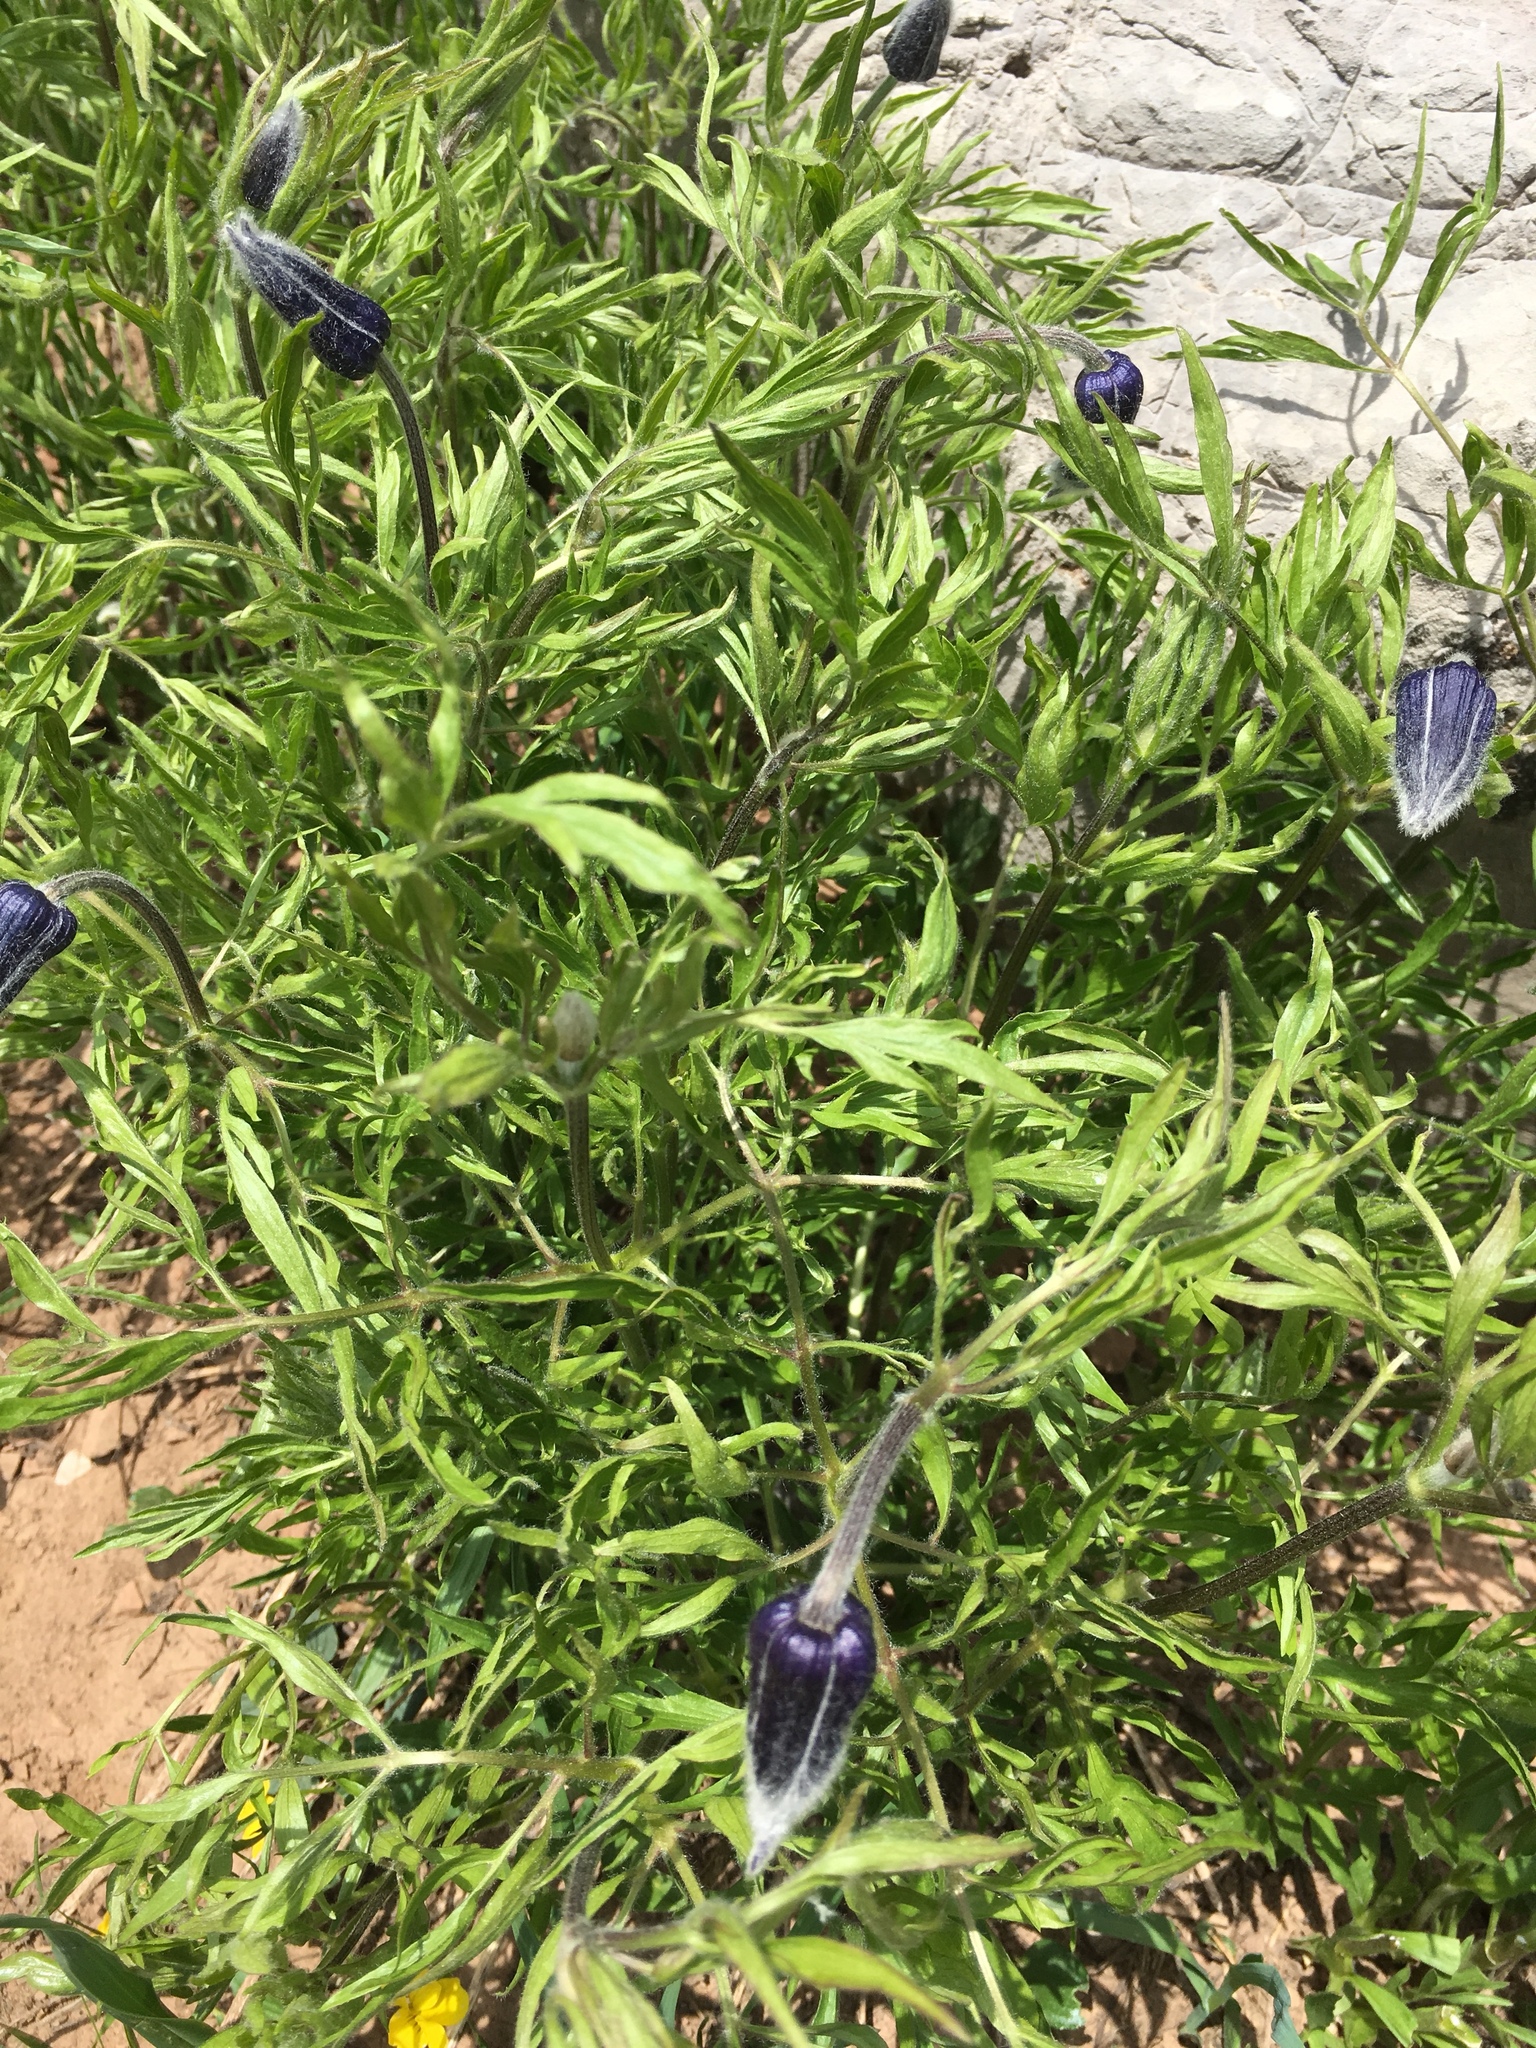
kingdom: Plantae
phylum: Tracheophyta
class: Magnoliopsida
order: Ranunculales
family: Ranunculaceae
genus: Clematis
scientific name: Clematis hirsutissima
